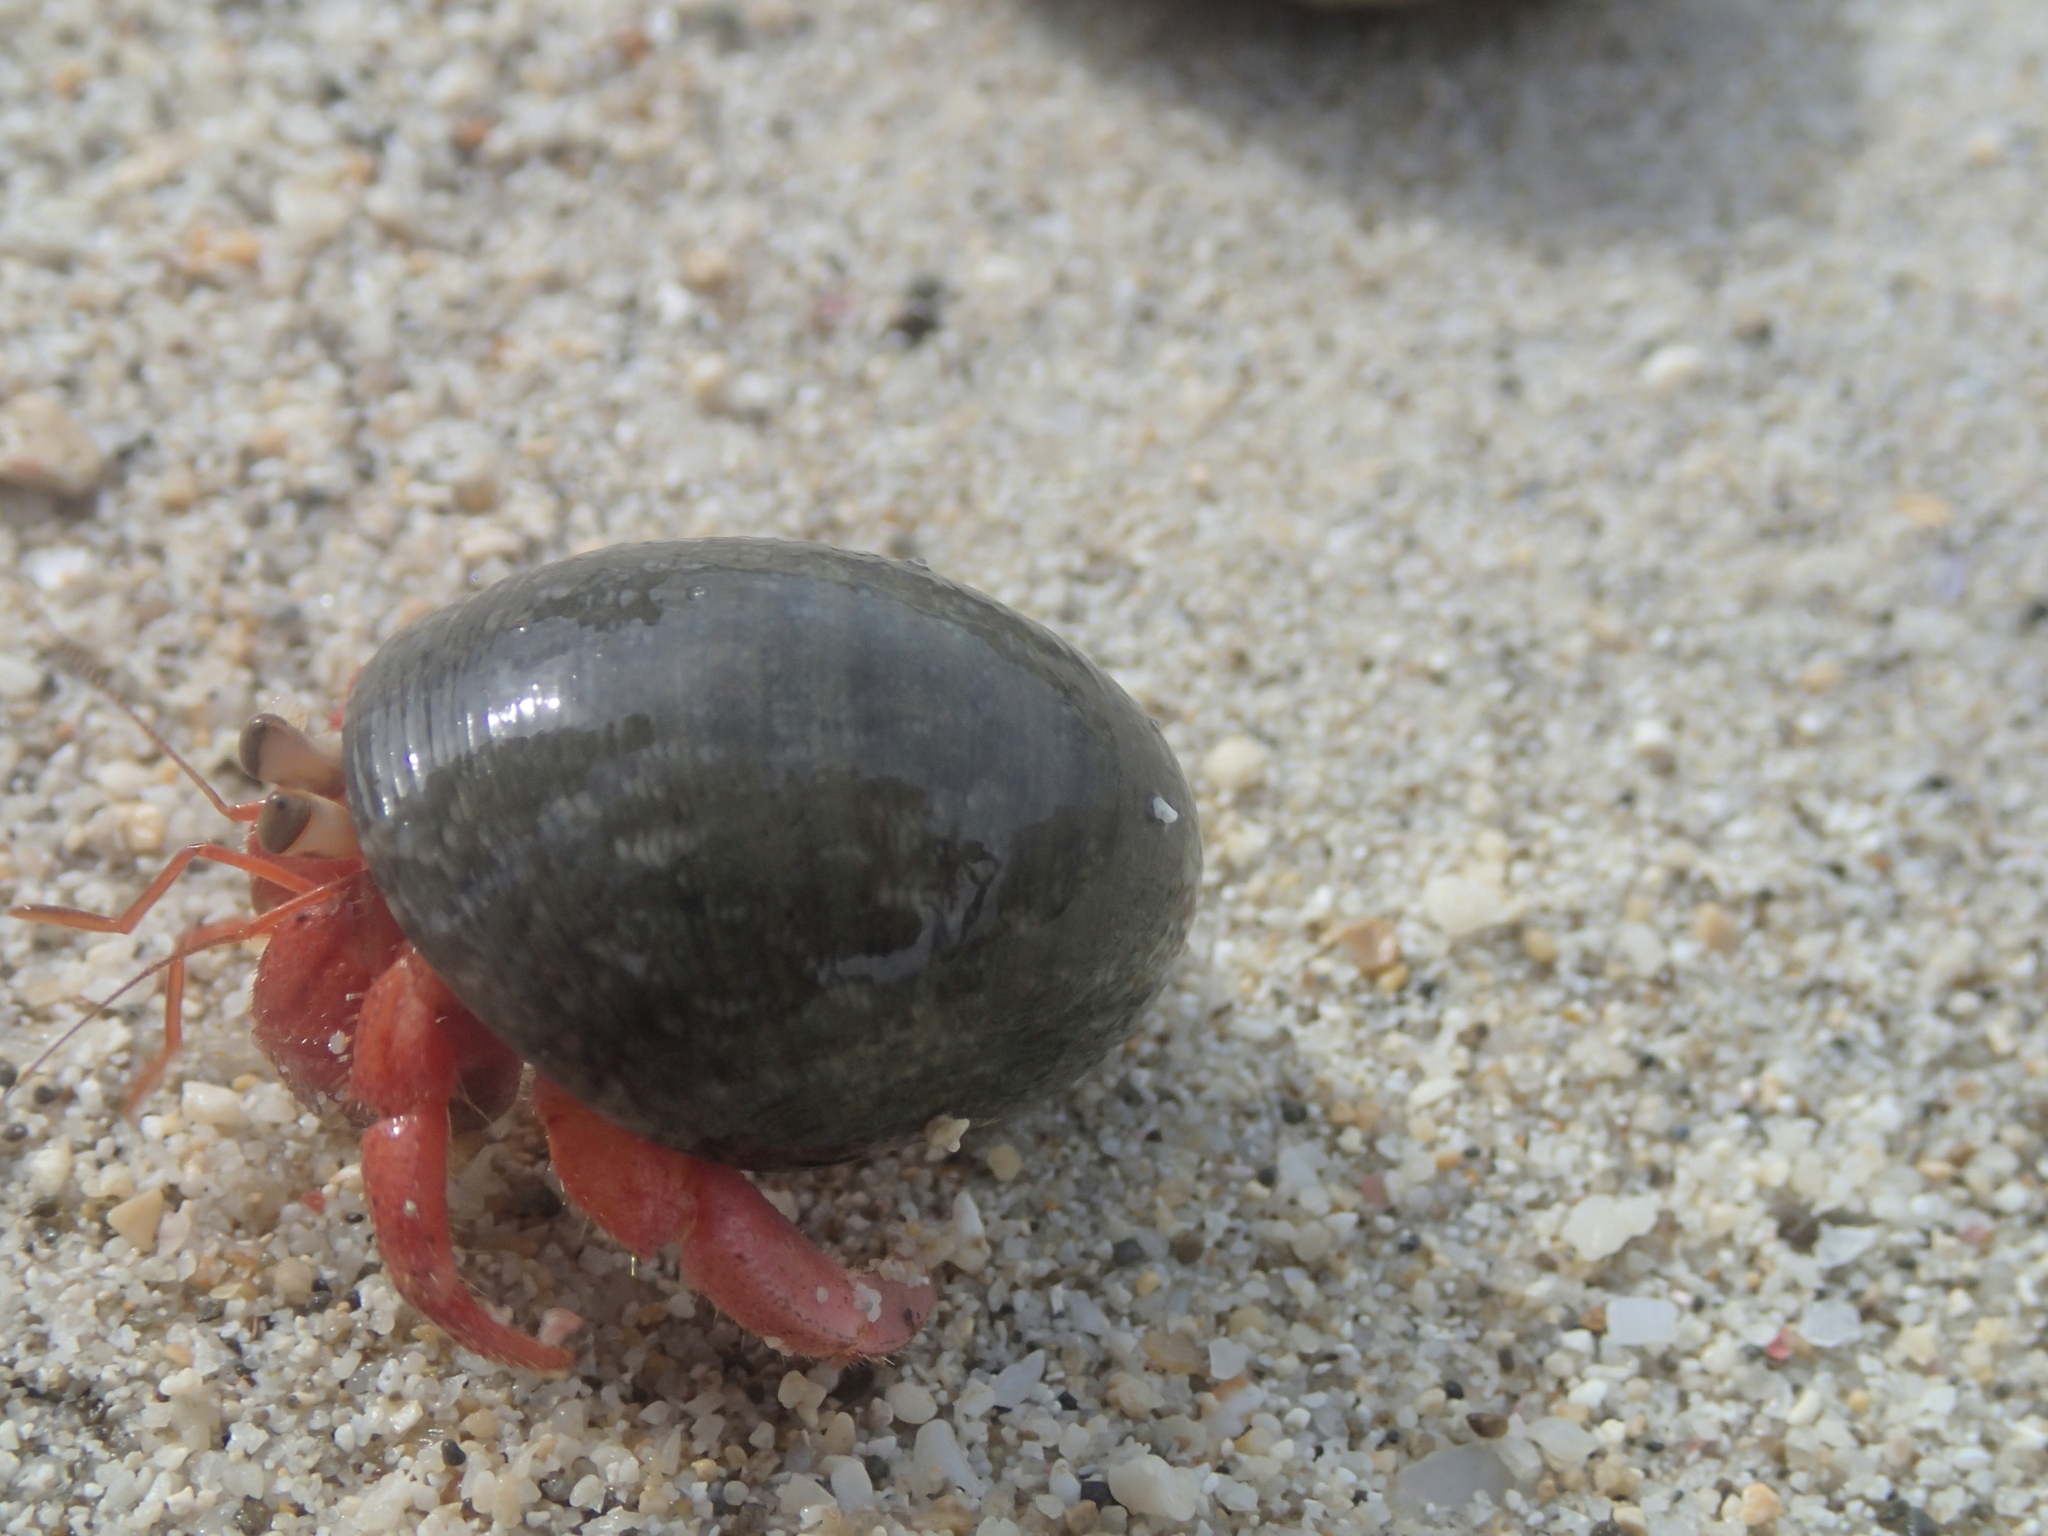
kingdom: Animalia
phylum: Arthropoda
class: Malacostraca
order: Decapoda
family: Coenobitidae
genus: Coenobita
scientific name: Coenobita rugosus
